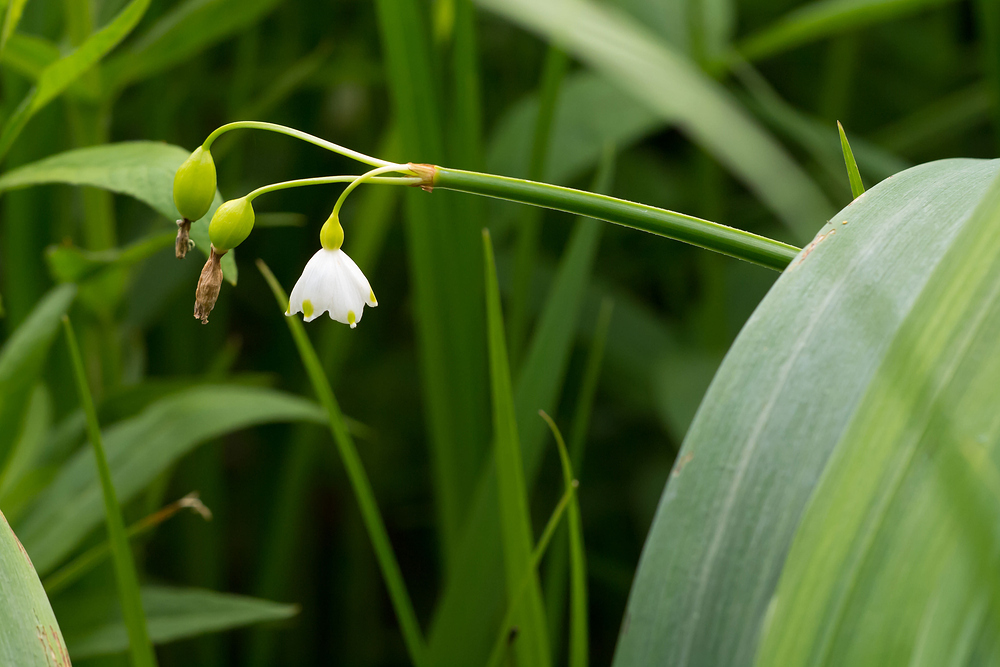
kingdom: Plantae
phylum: Tracheophyta
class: Liliopsida
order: Asparagales
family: Amaryllidaceae
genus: Leucojum
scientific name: Leucojum aestivum
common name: Summer snowflake
